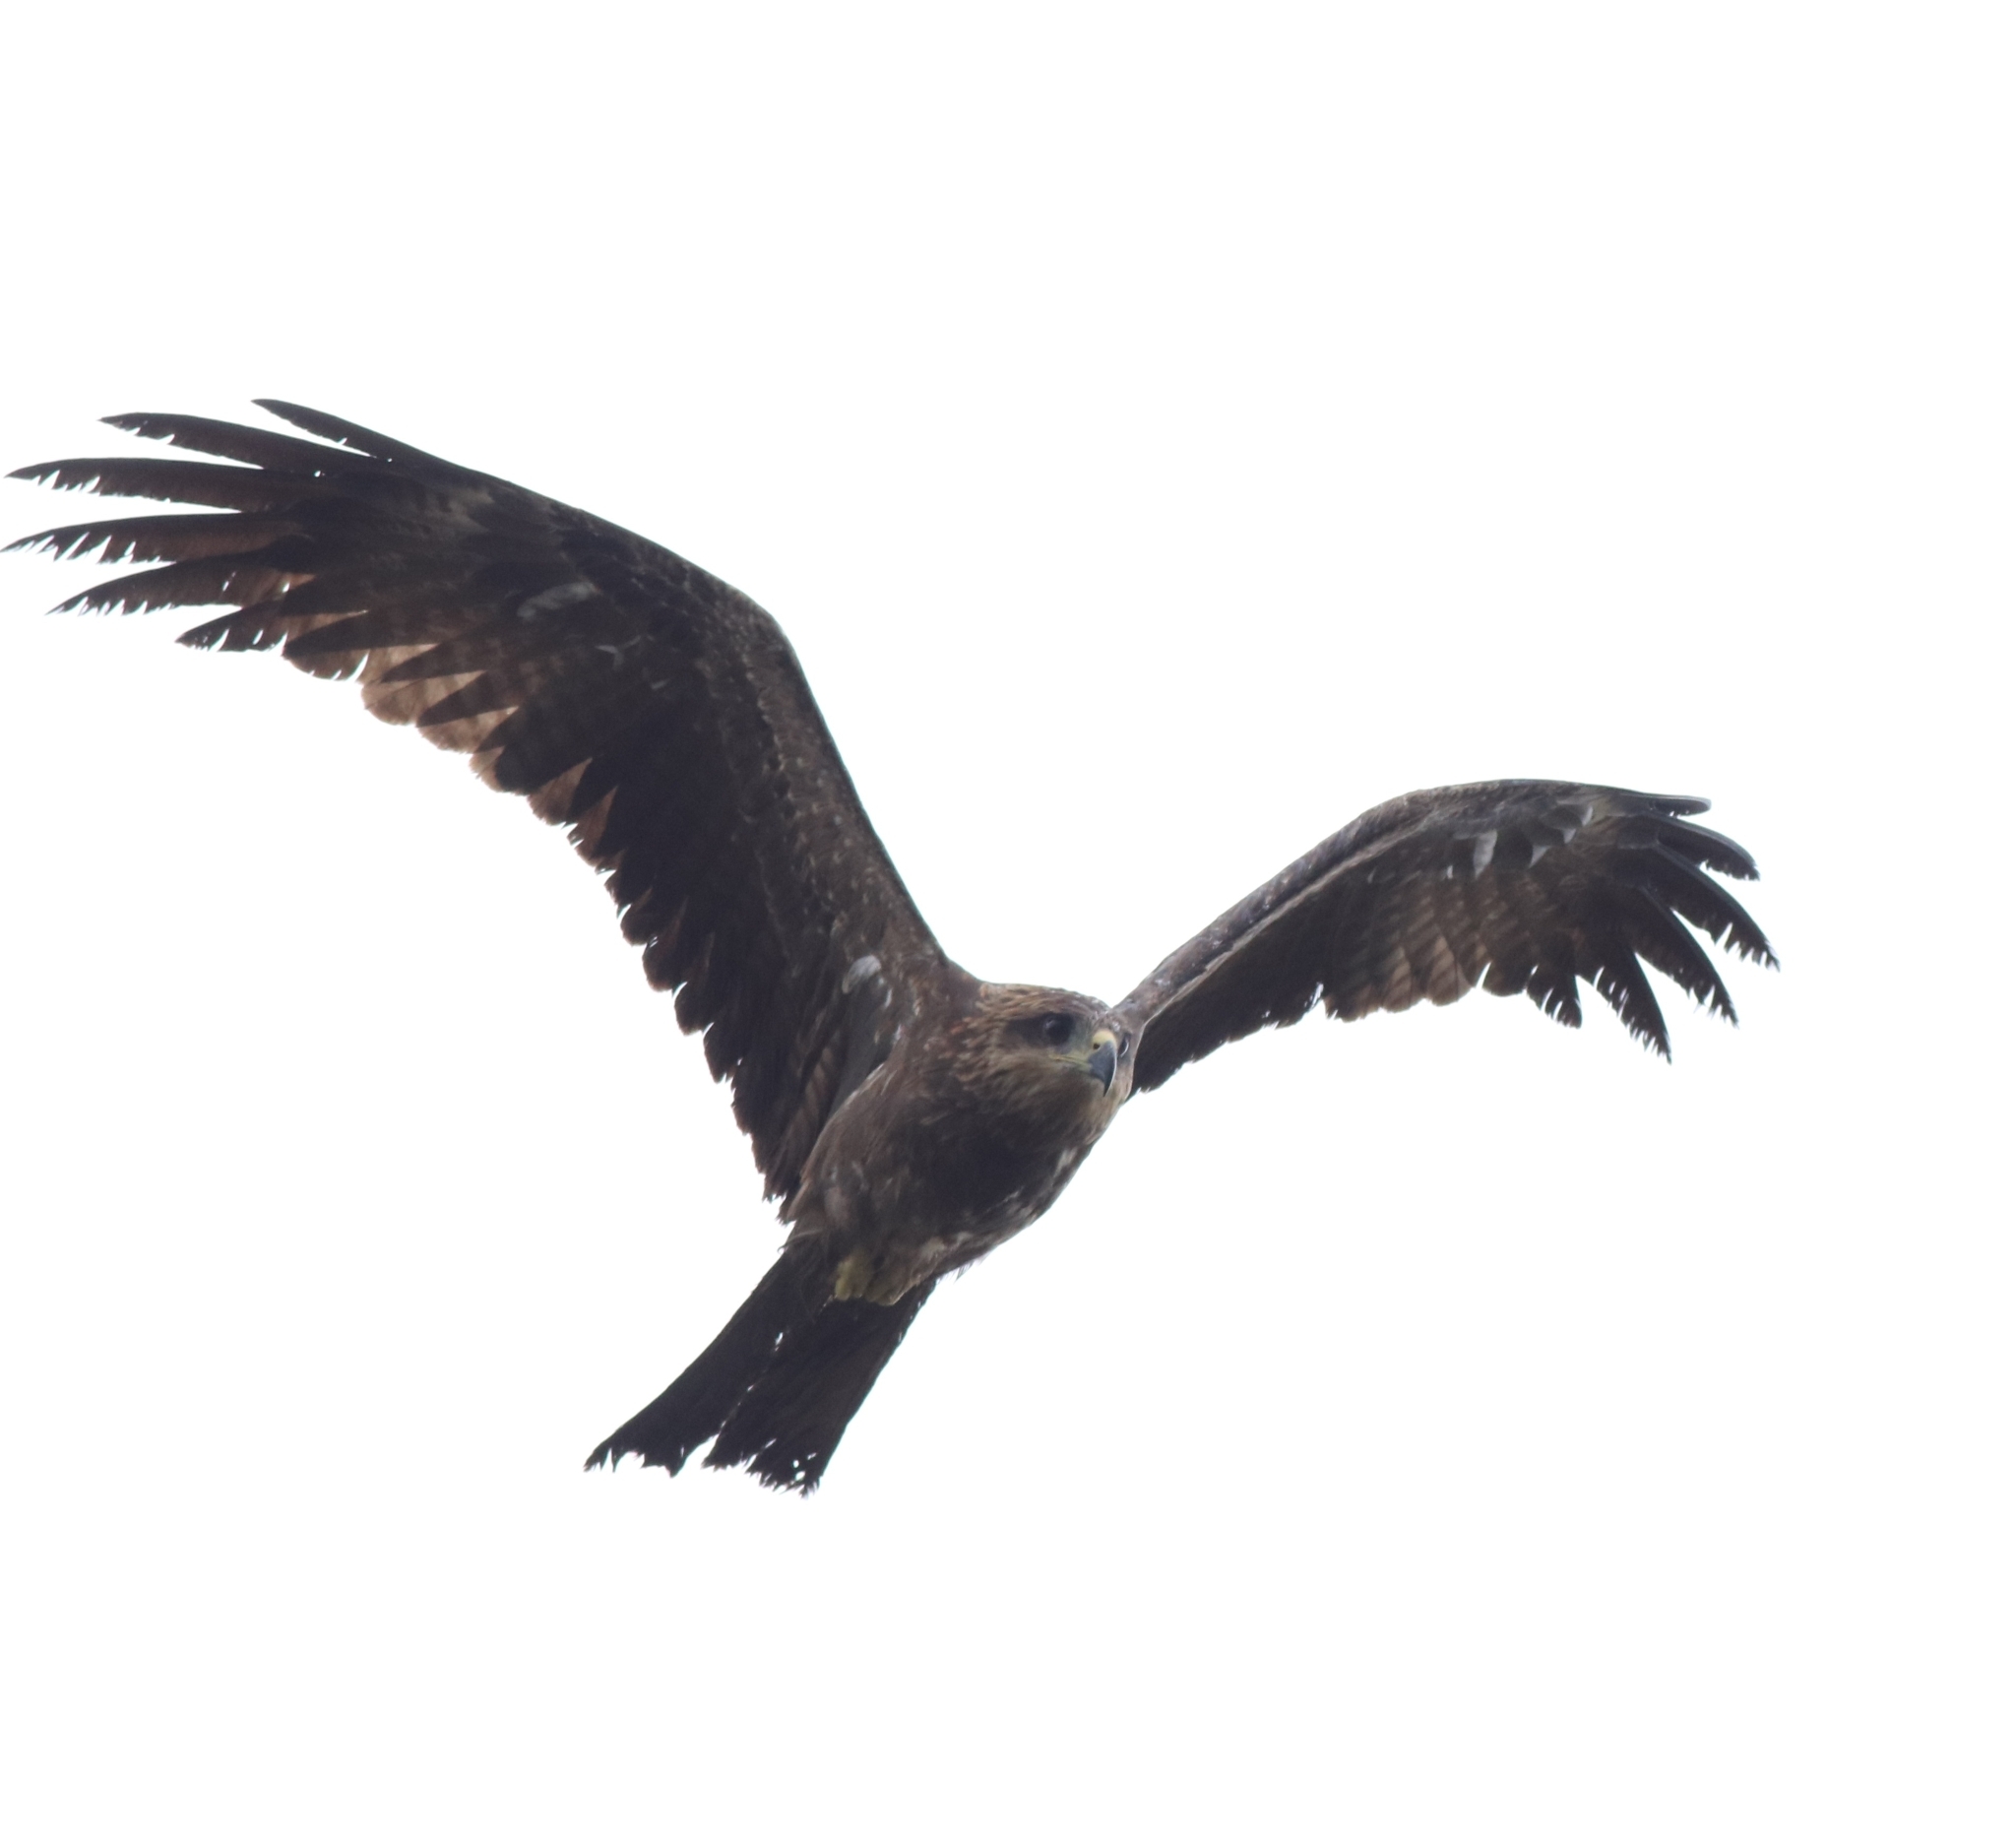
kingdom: Animalia
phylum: Chordata
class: Aves
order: Accipitriformes
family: Accipitridae
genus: Milvus
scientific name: Milvus migrans
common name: Black kite
